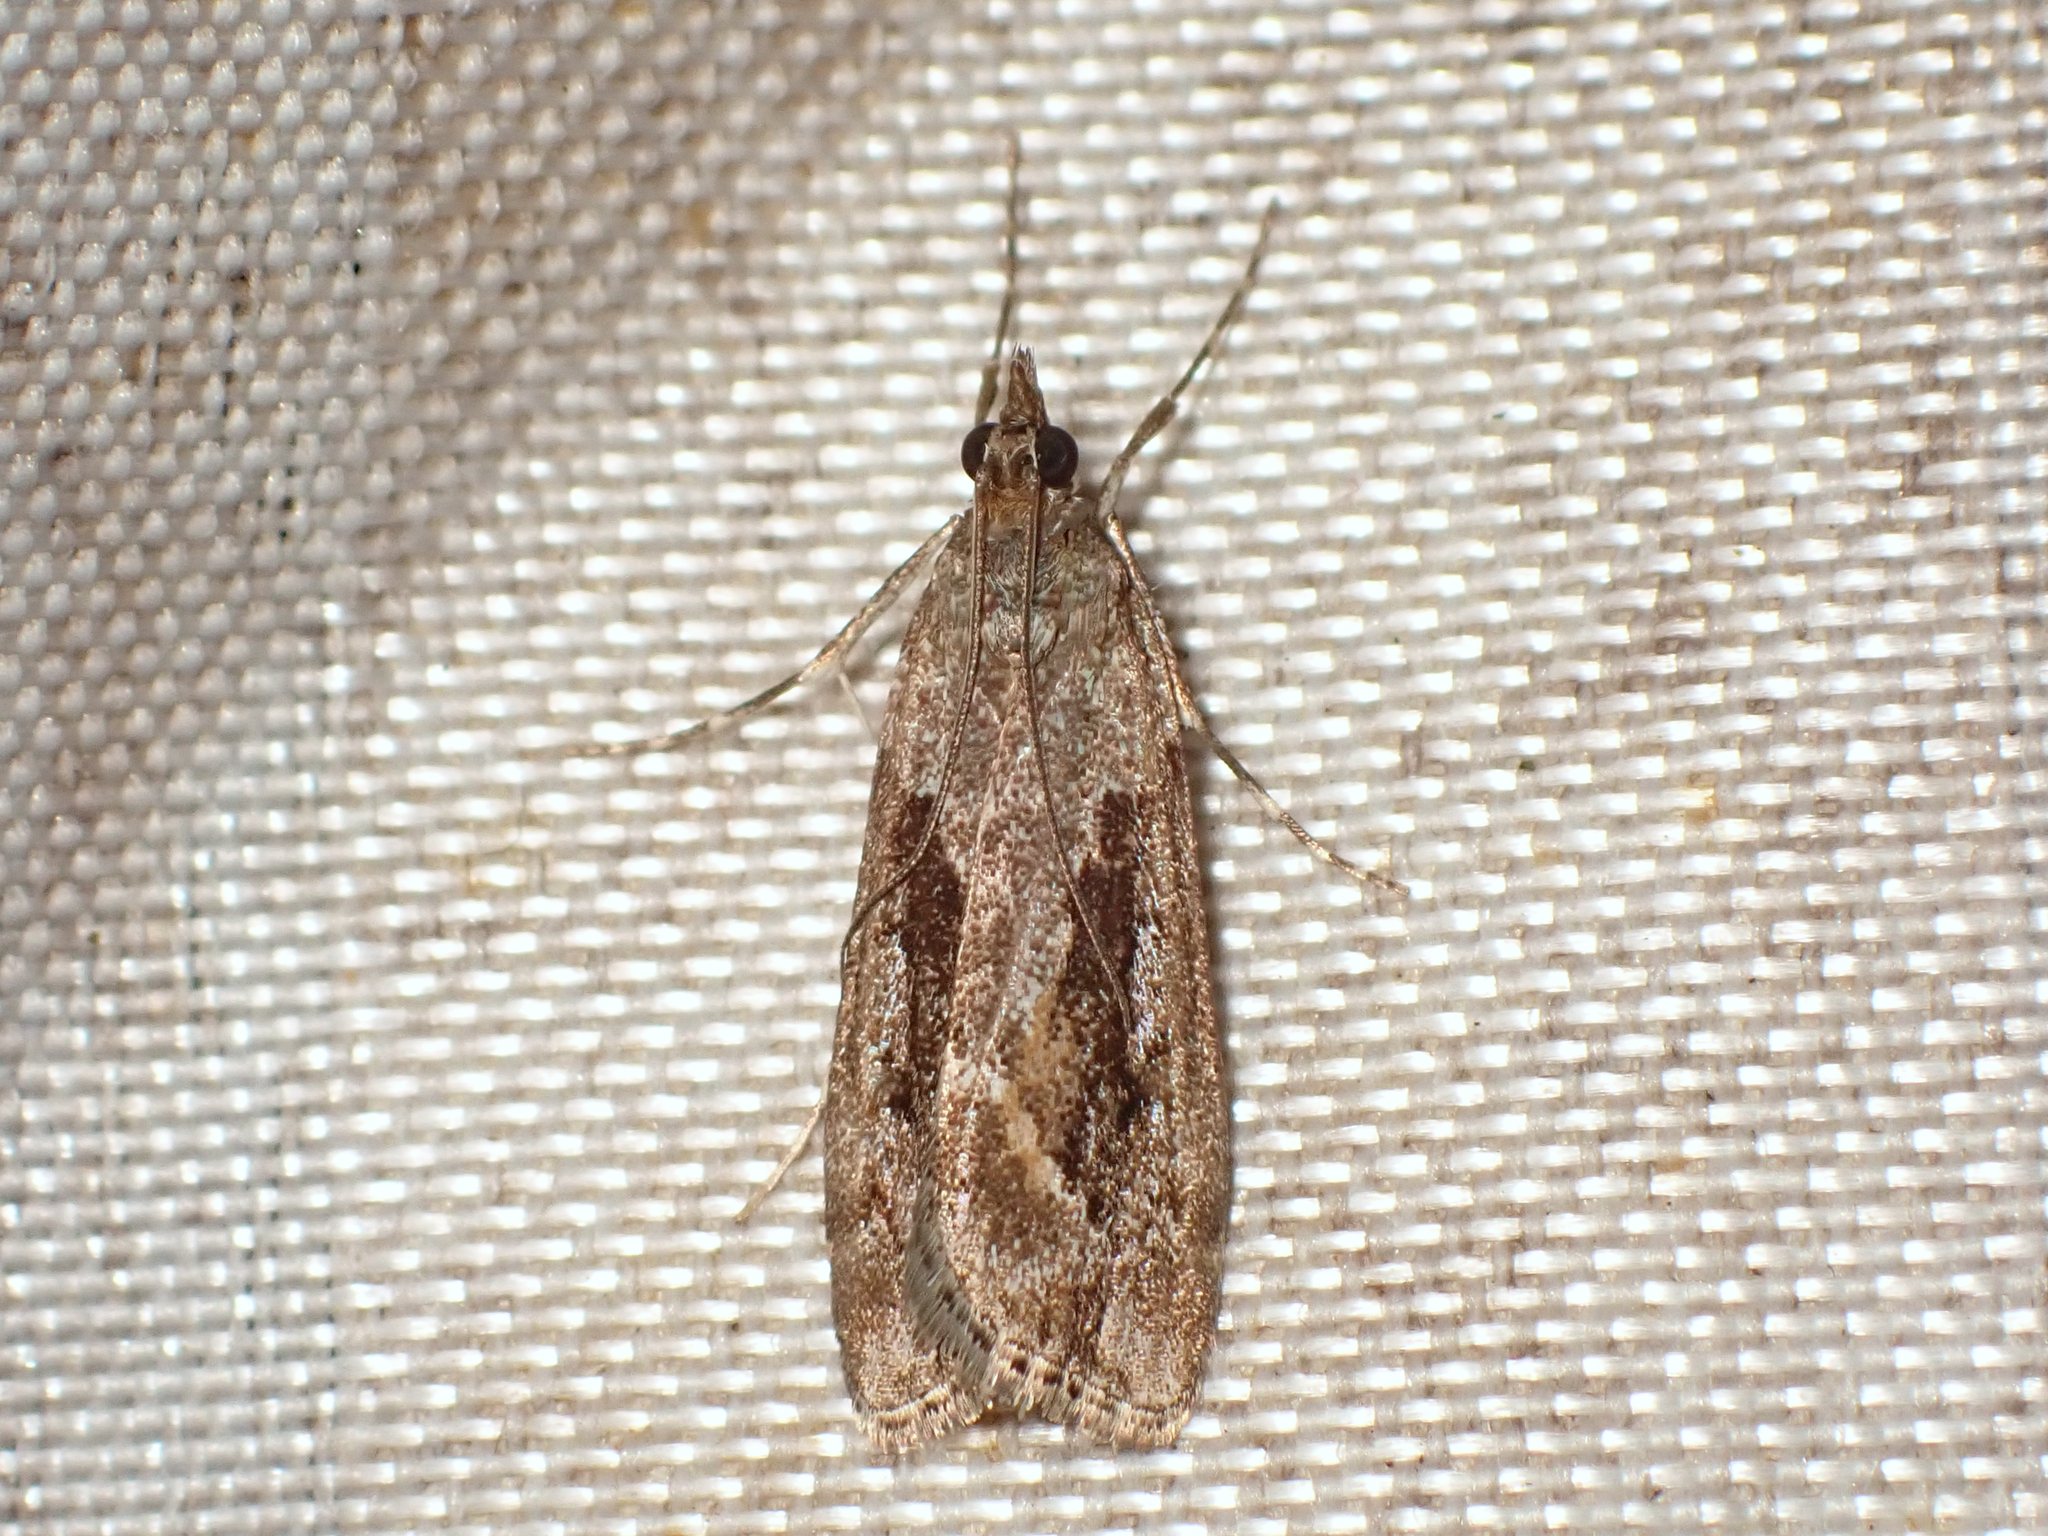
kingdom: Animalia
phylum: Arthropoda
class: Insecta
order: Lepidoptera
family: Crambidae
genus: Eudonia
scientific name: Eudonia submarginalis
